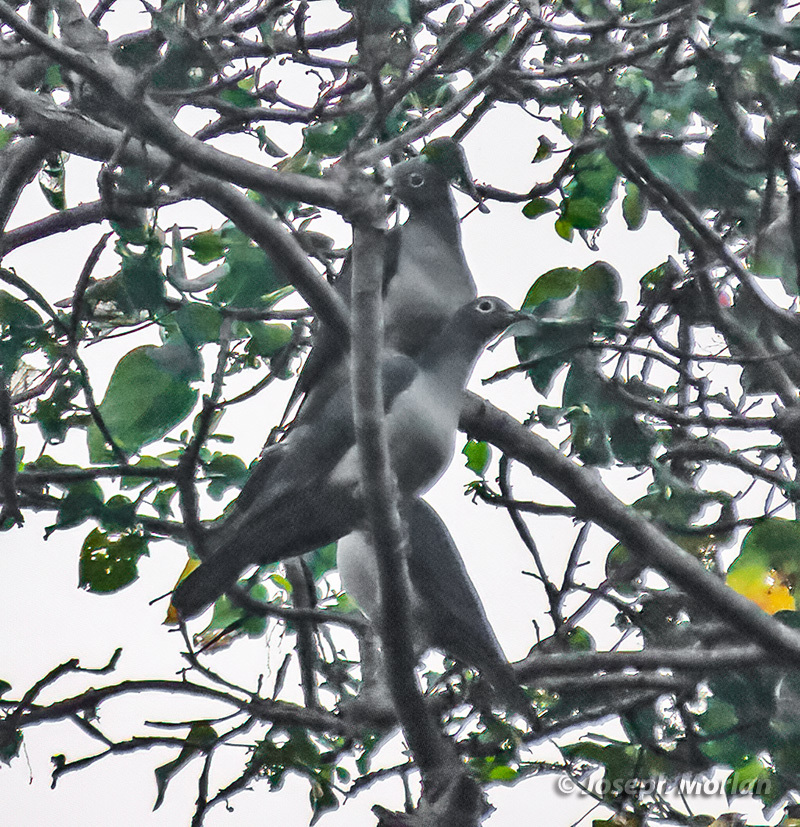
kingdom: Animalia
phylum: Chordata
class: Aves
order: Columbiformes
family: Columbidae
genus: Ducula
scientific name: Ducula perspicillata
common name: Spectacled imperial pigeon
